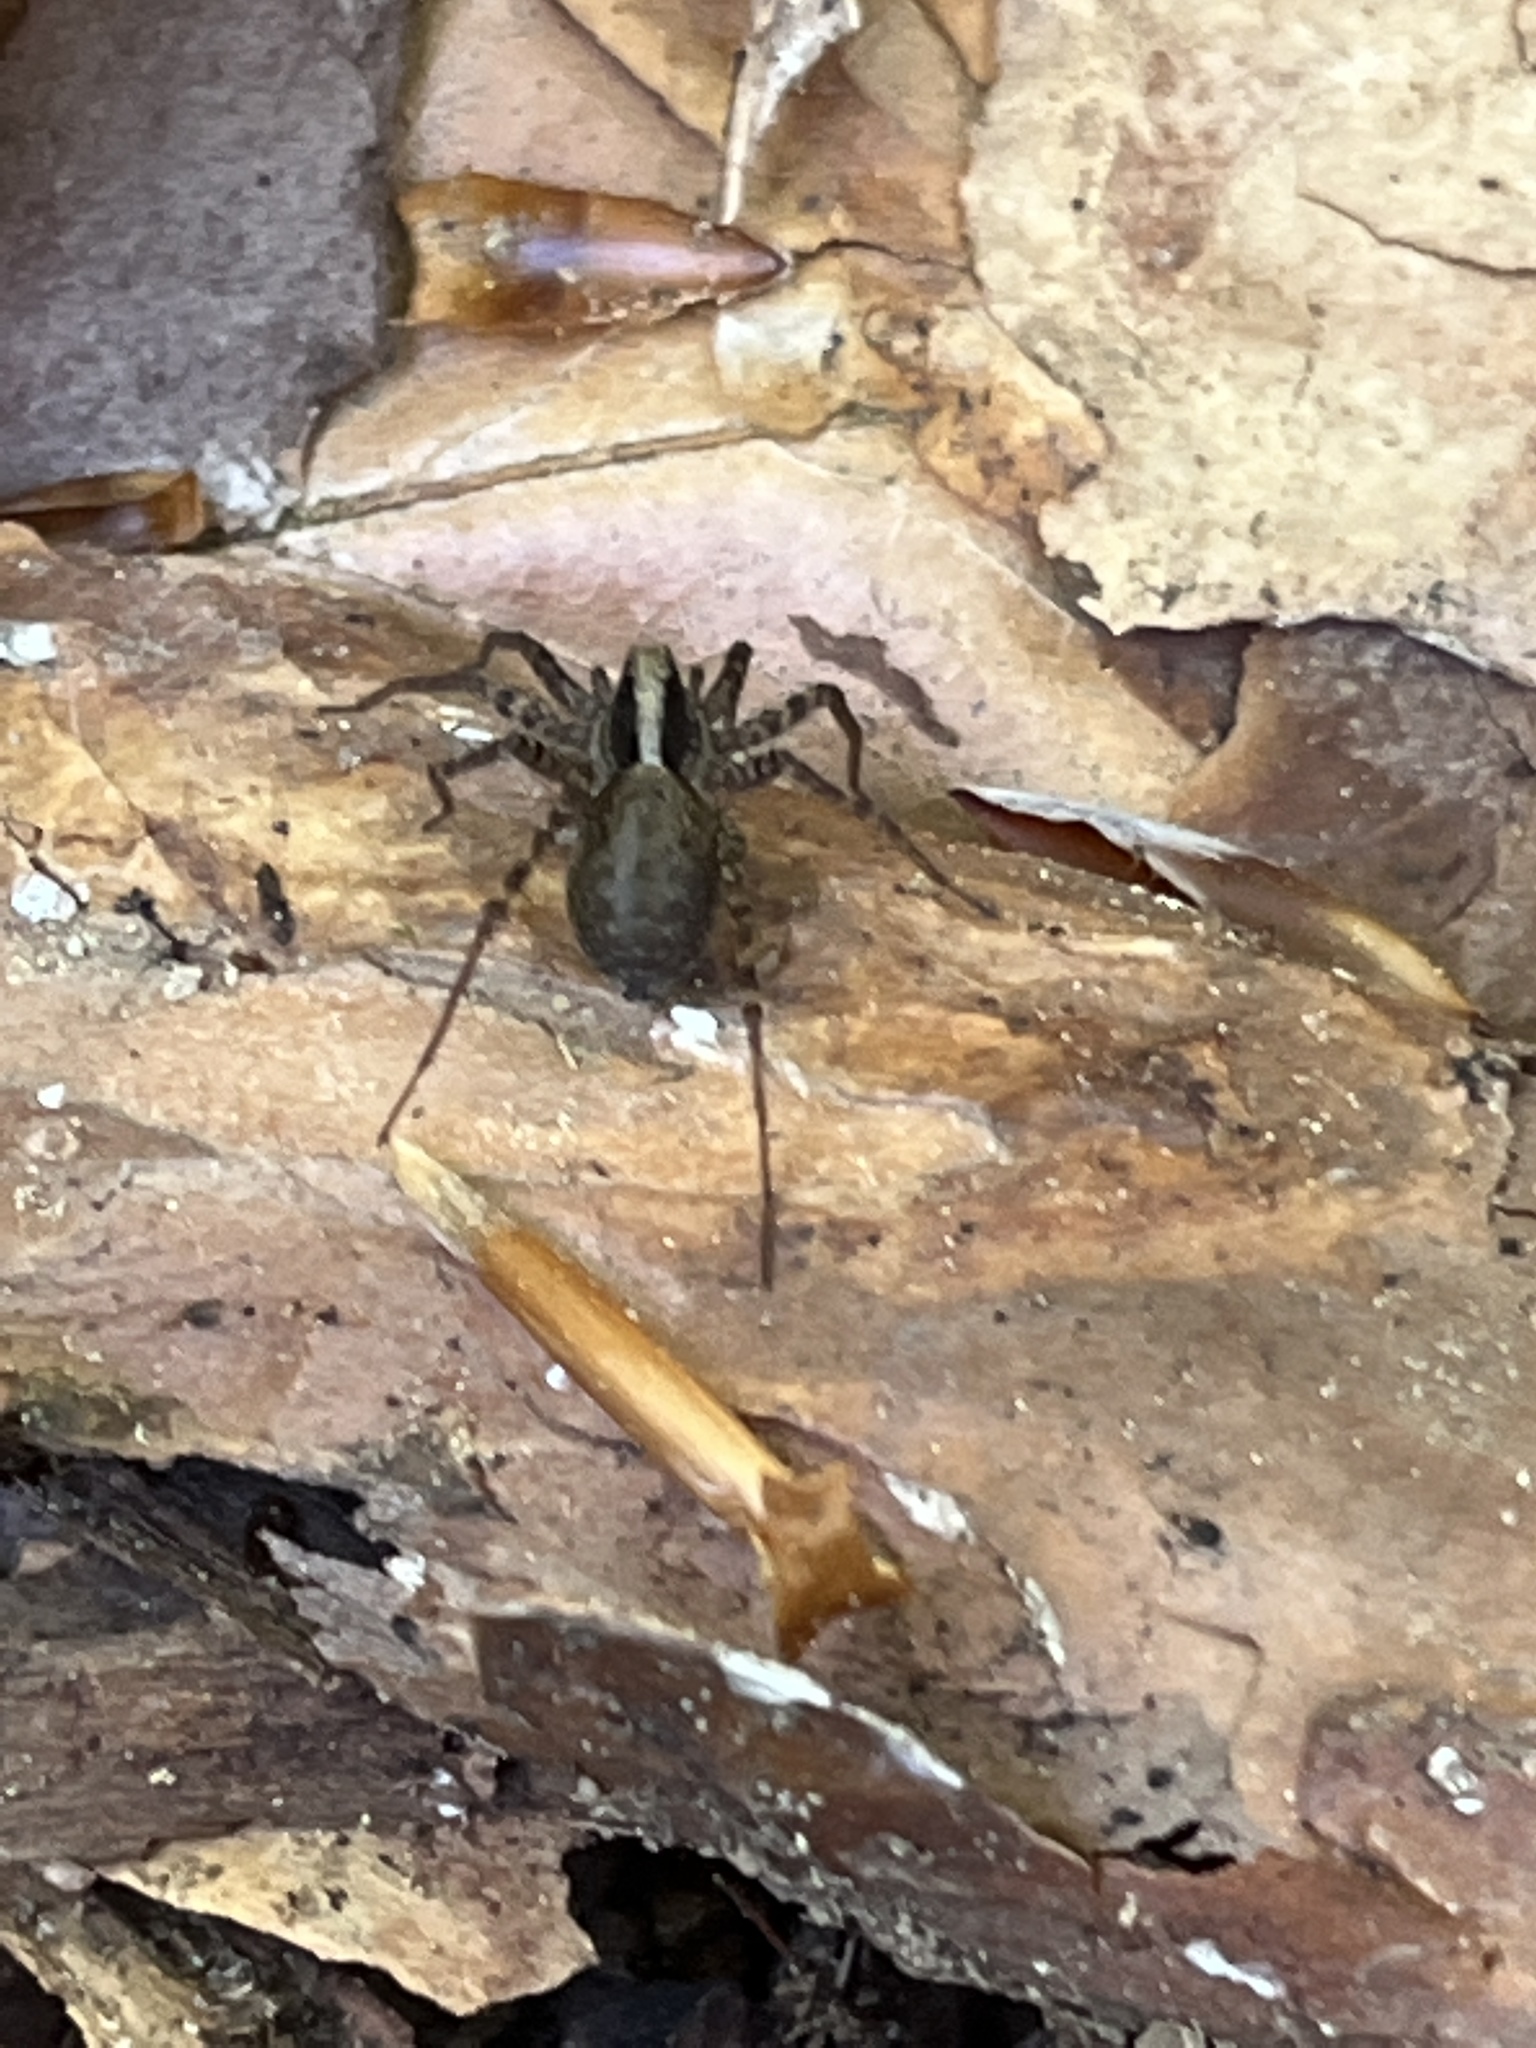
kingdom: Animalia
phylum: Arthropoda
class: Arachnida
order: Araneae
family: Lycosidae
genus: Pardosa
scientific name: Pardosa
